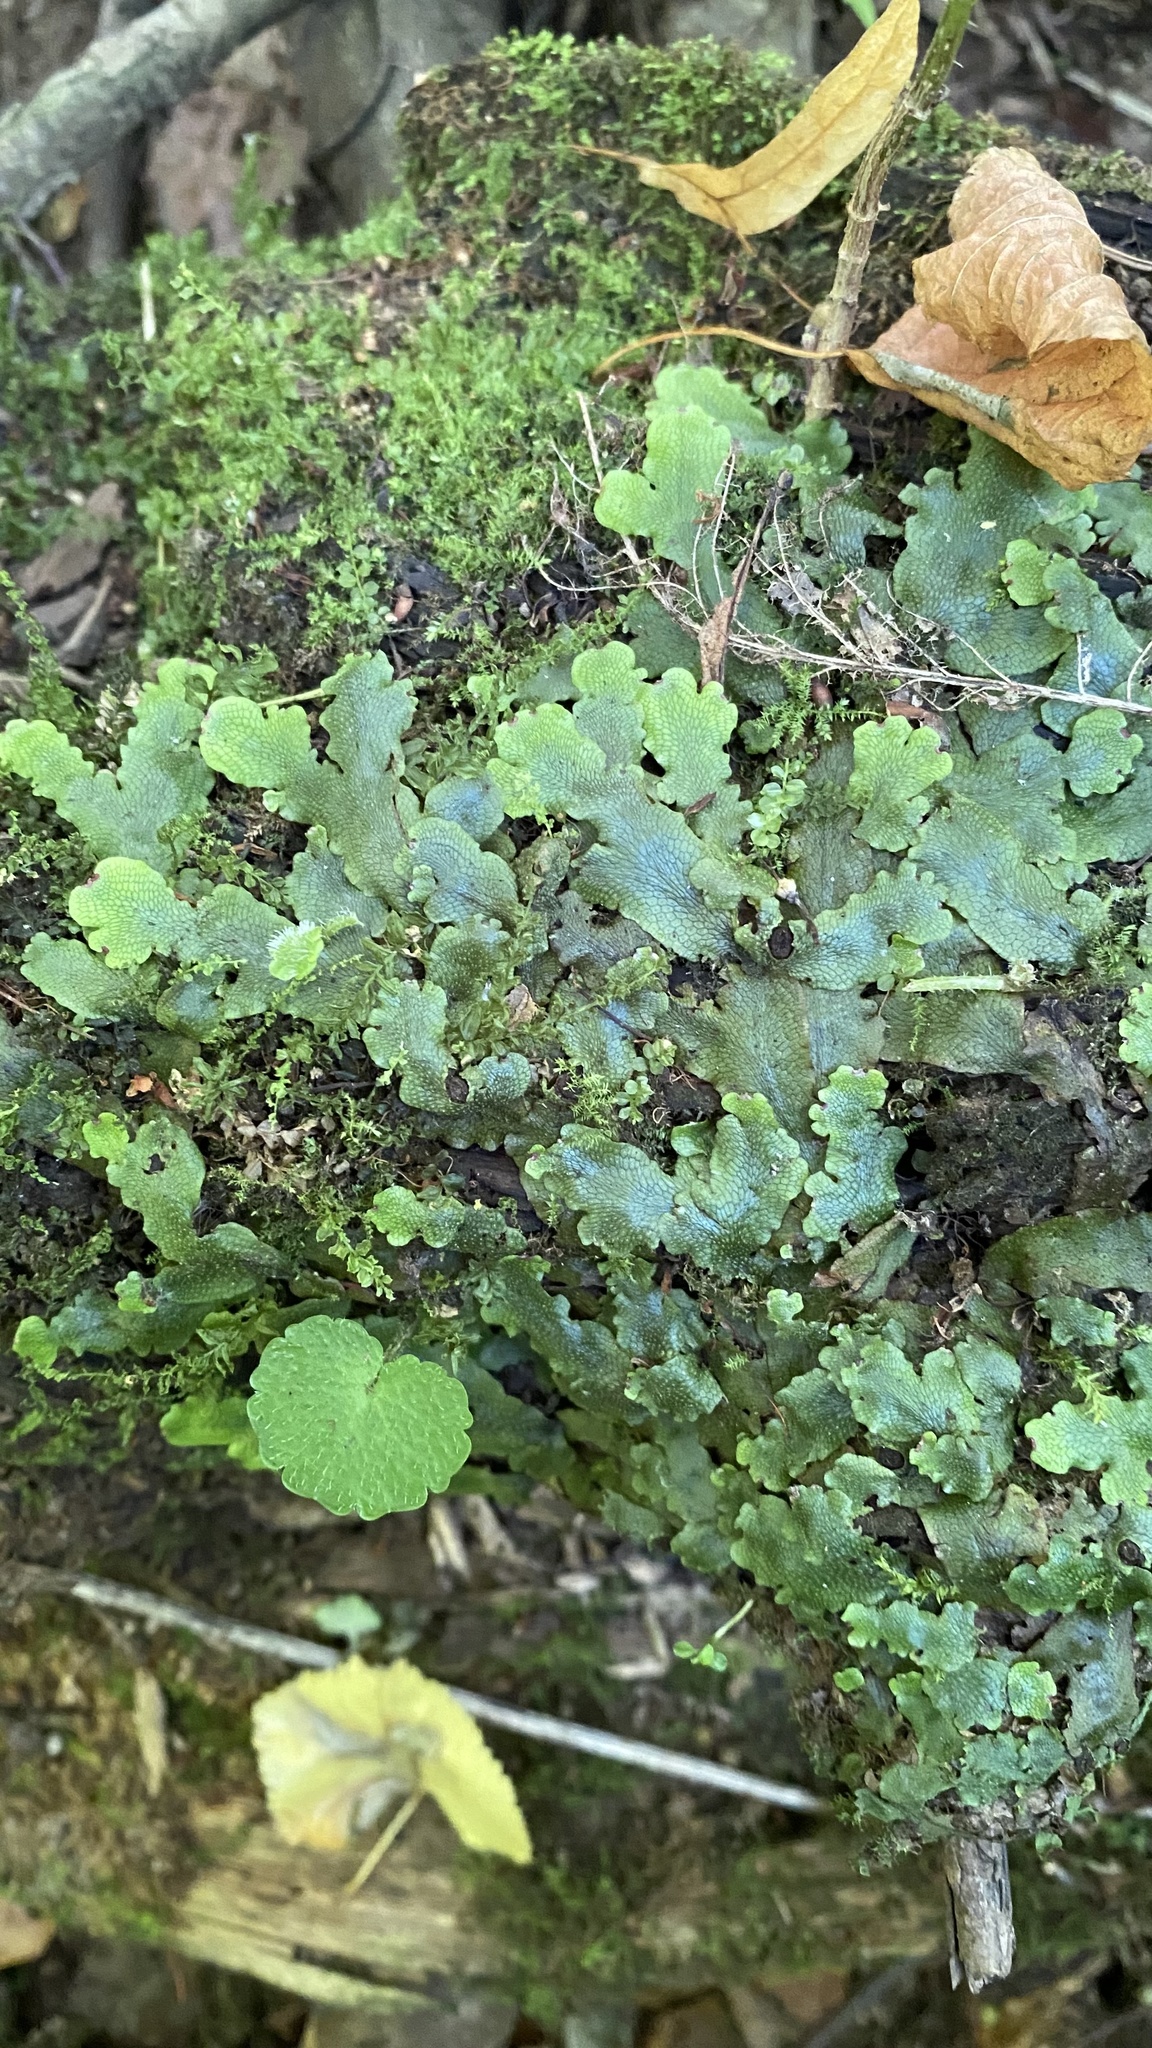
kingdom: Plantae
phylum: Marchantiophyta
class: Marchantiopsida
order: Marchantiales
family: Conocephalaceae
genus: Conocephalum
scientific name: Conocephalum salebrosum
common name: Cat-tongue liverwort
